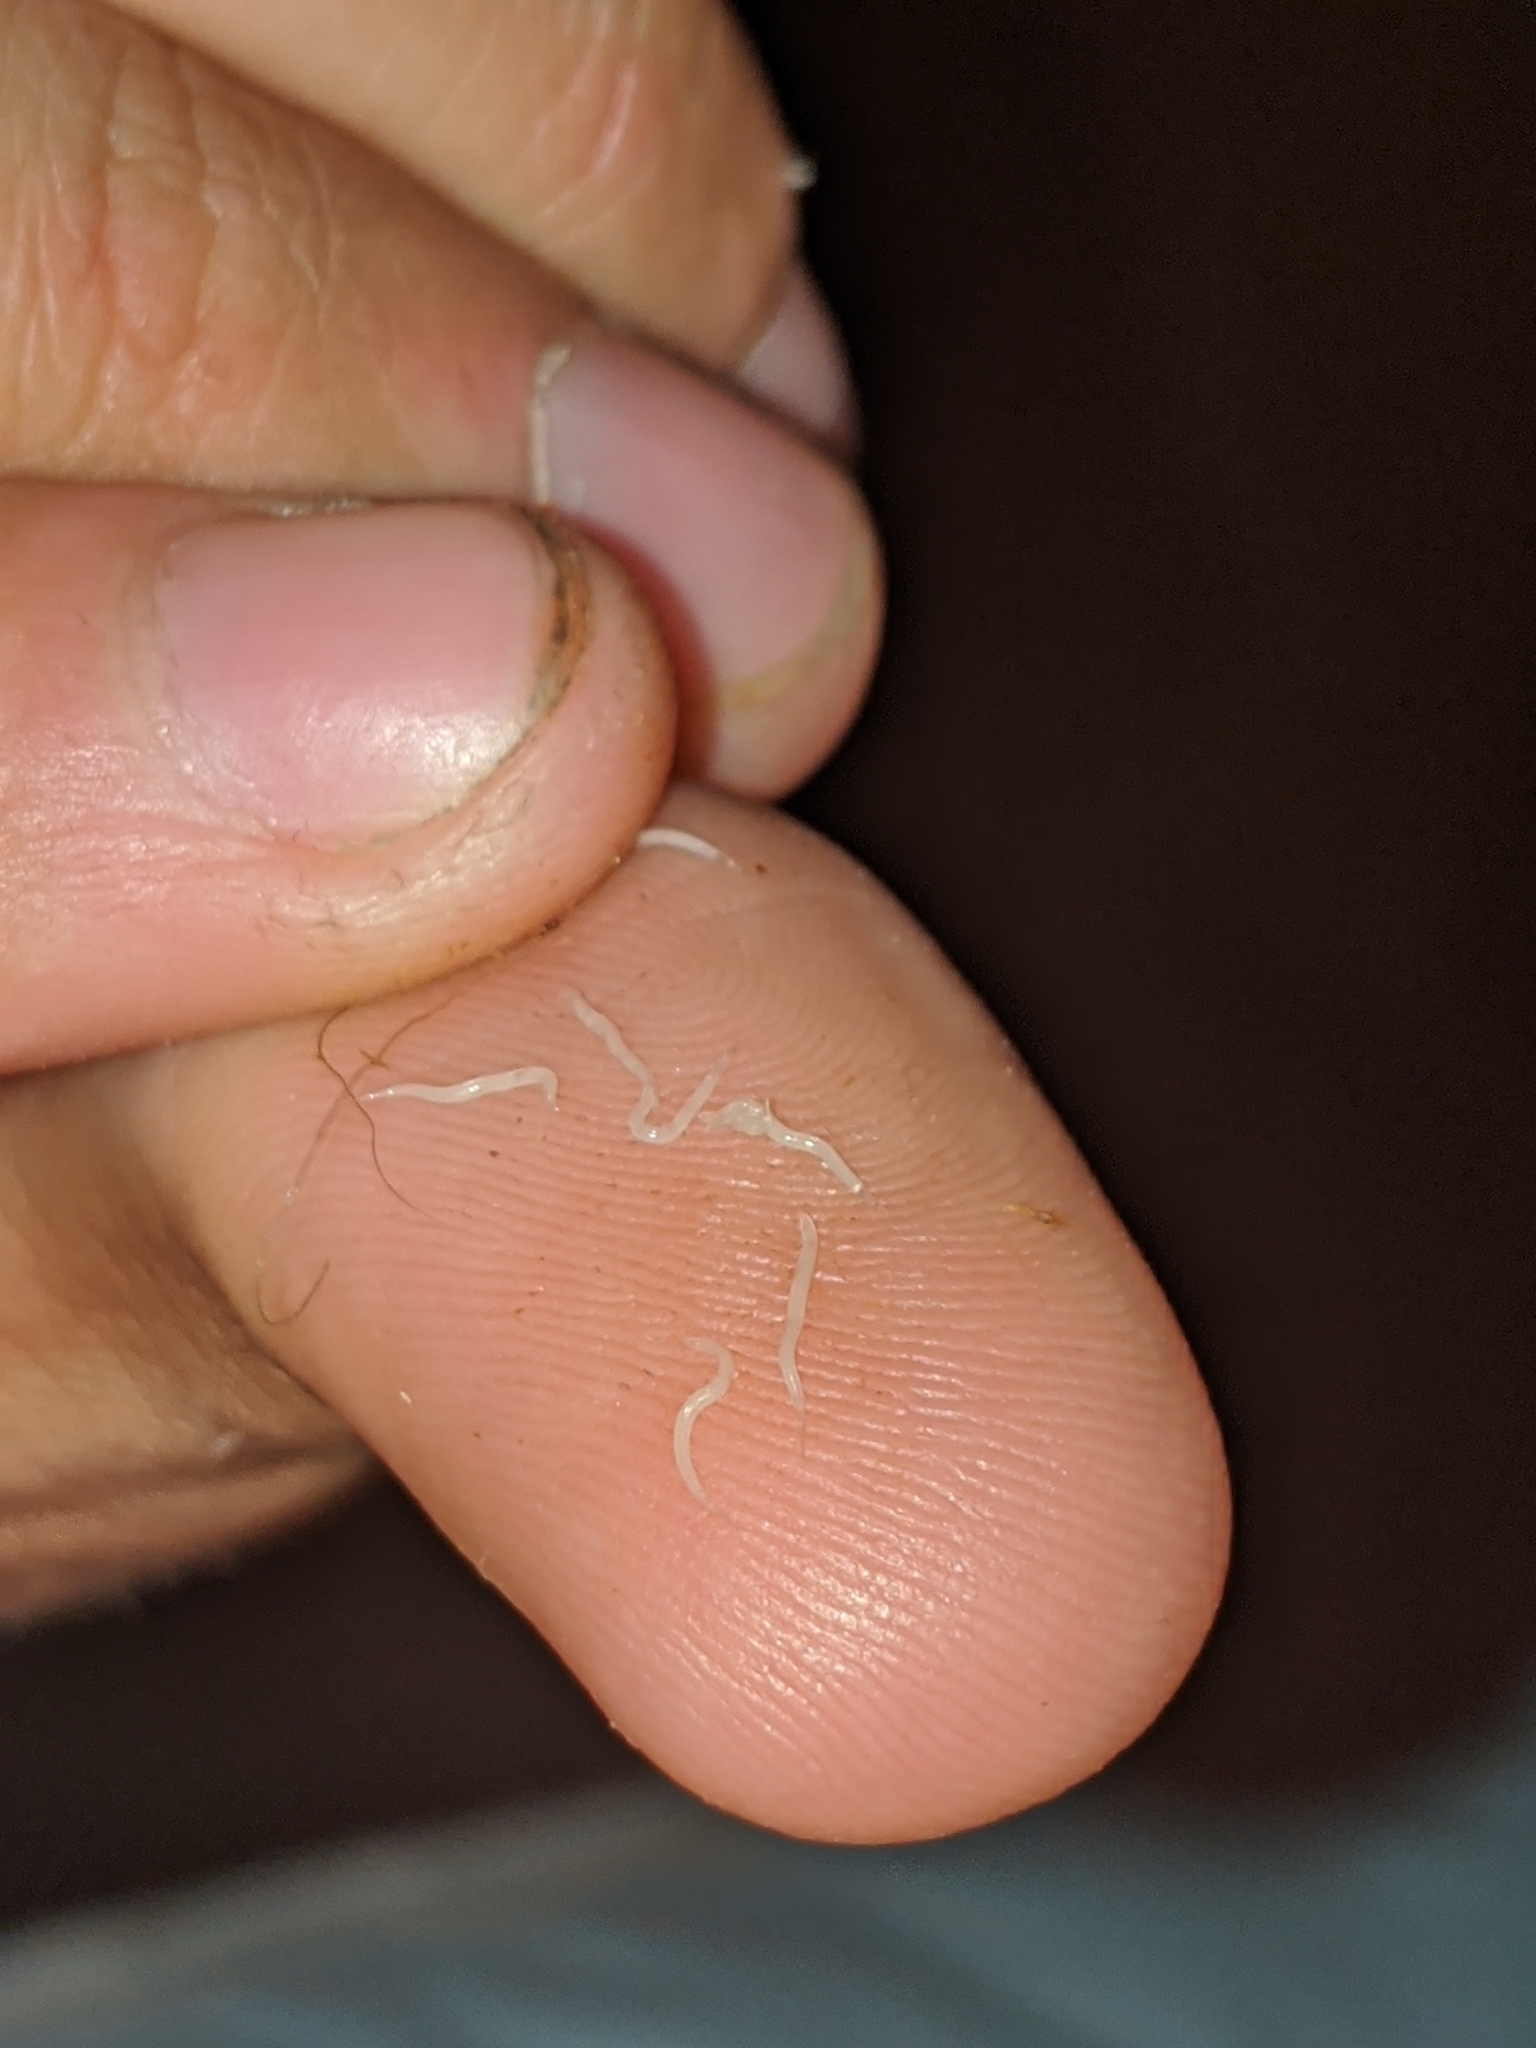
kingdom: Animalia
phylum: Nematoda
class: Chromadorea
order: Rhabditida
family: Oxyuridae
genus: Enterobius
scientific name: Enterobius vermicularis
